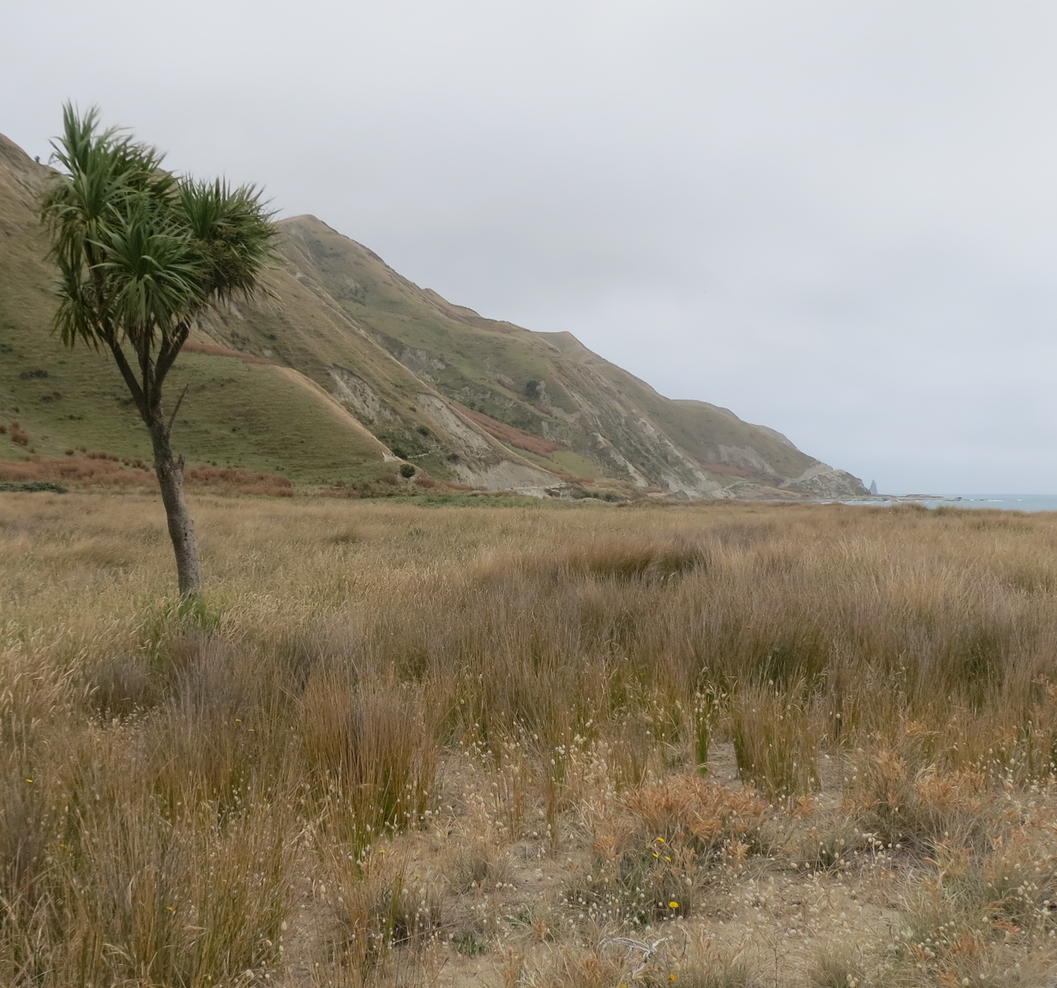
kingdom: Plantae
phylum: Tracheophyta
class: Liliopsida
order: Asparagales
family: Asparagaceae
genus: Cordyline
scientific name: Cordyline australis
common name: Cabbage-palm
